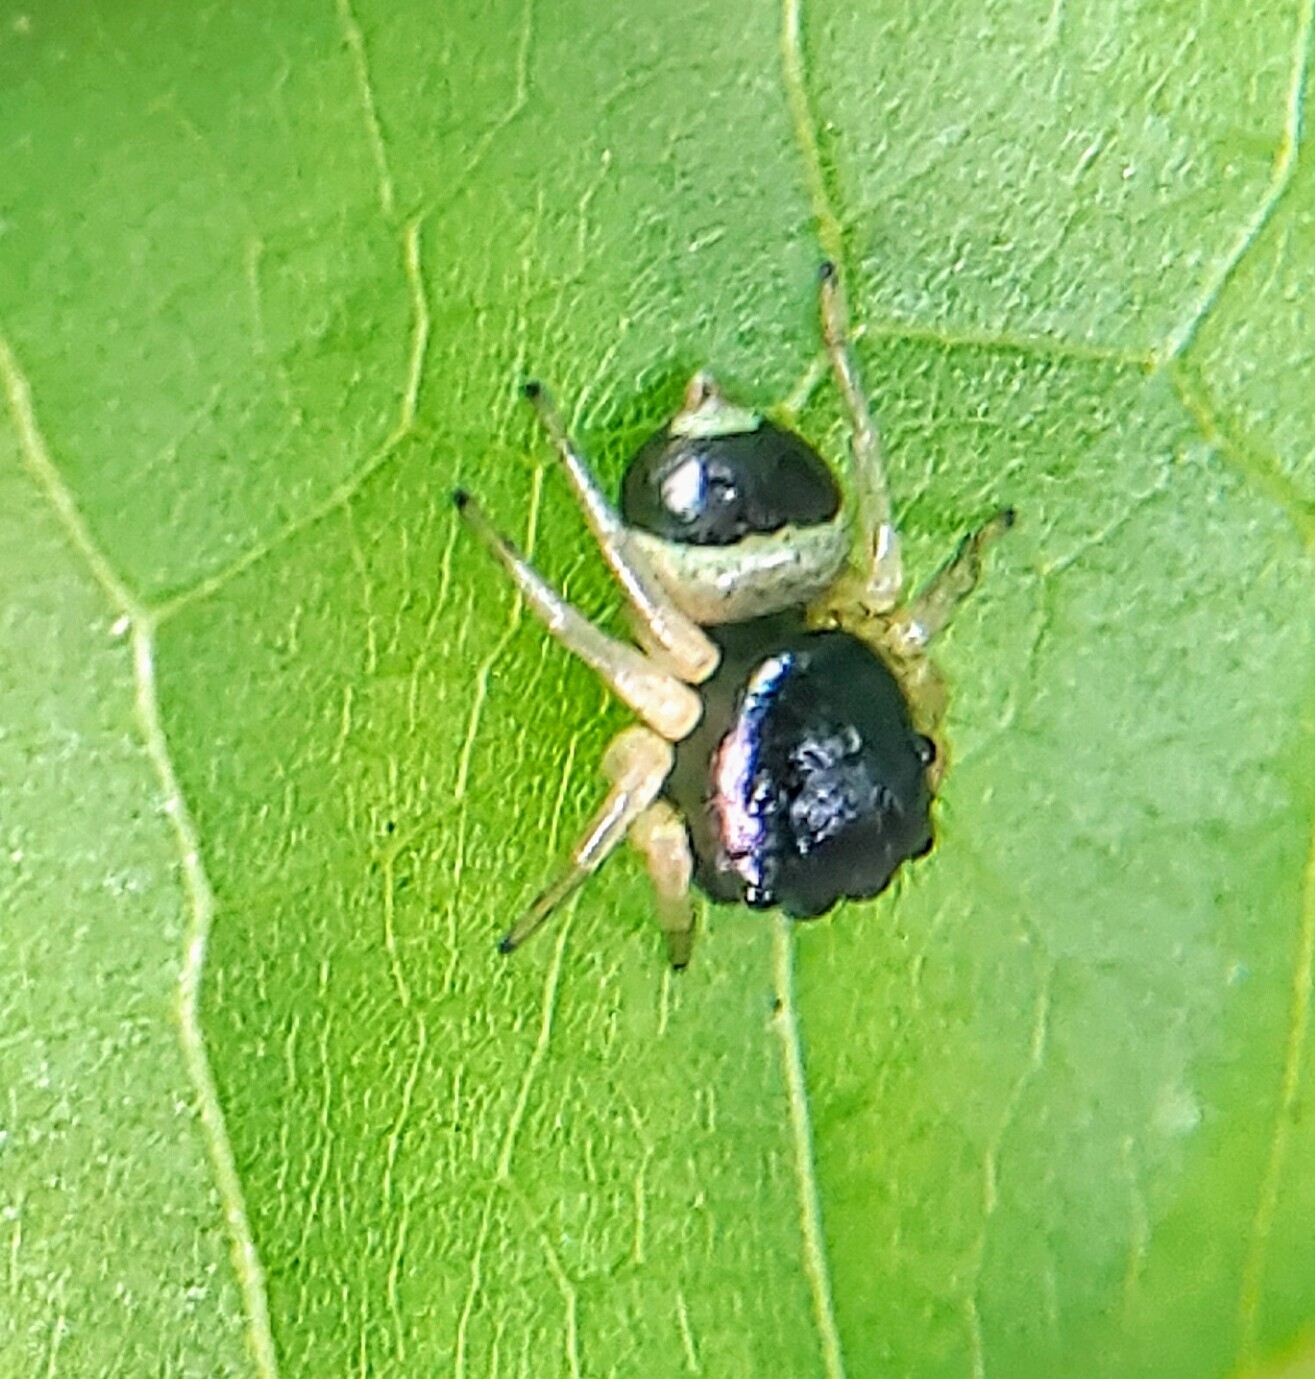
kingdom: Animalia
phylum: Arthropoda
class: Arachnida
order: Araneae
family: Salticidae
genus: Pystira
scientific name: Pystira ephippigera
